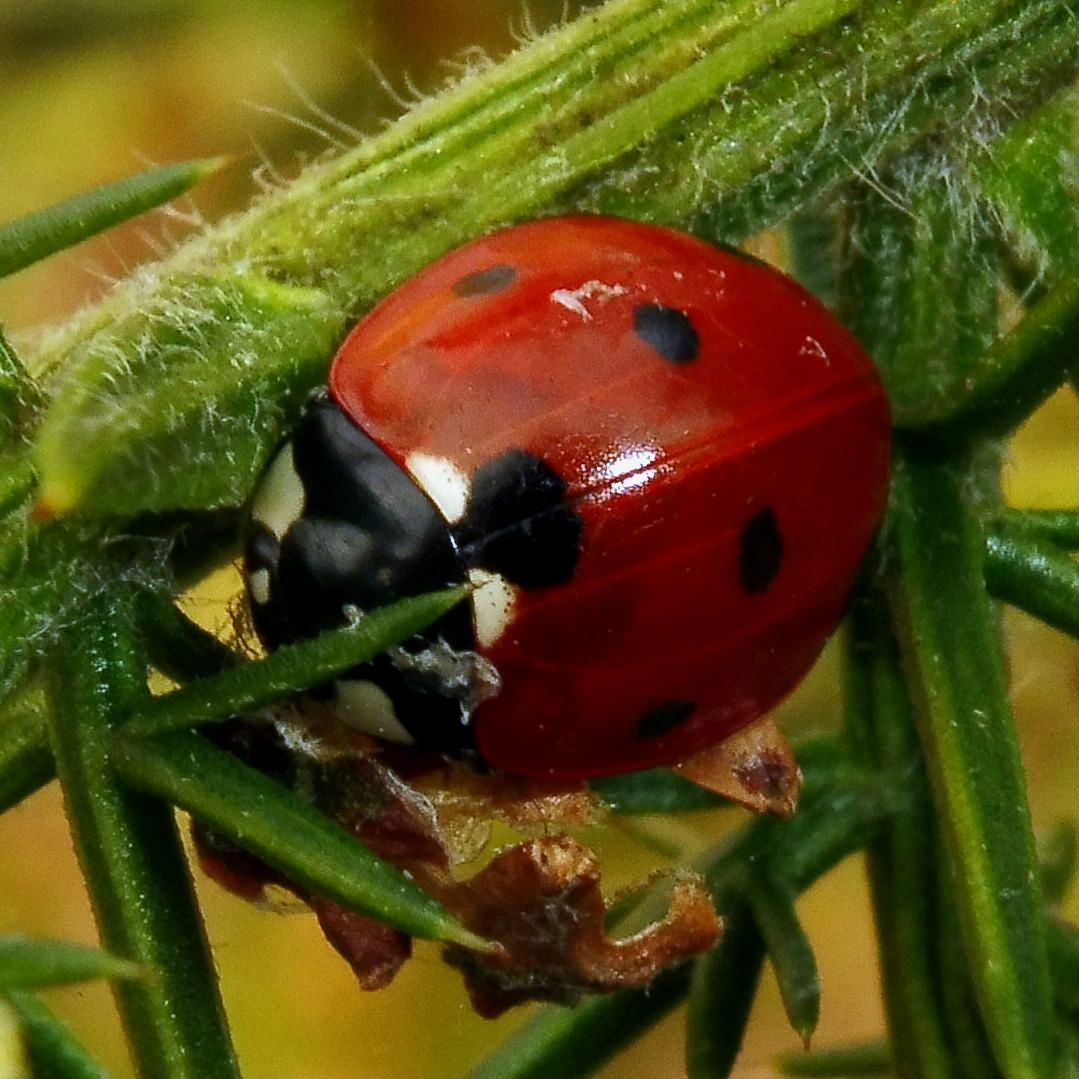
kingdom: Animalia
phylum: Arthropoda
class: Insecta
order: Coleoptera
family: Coccinellidae
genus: Coccinella
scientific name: Coccinella septempunctata
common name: Sevenspotted lady beetle
